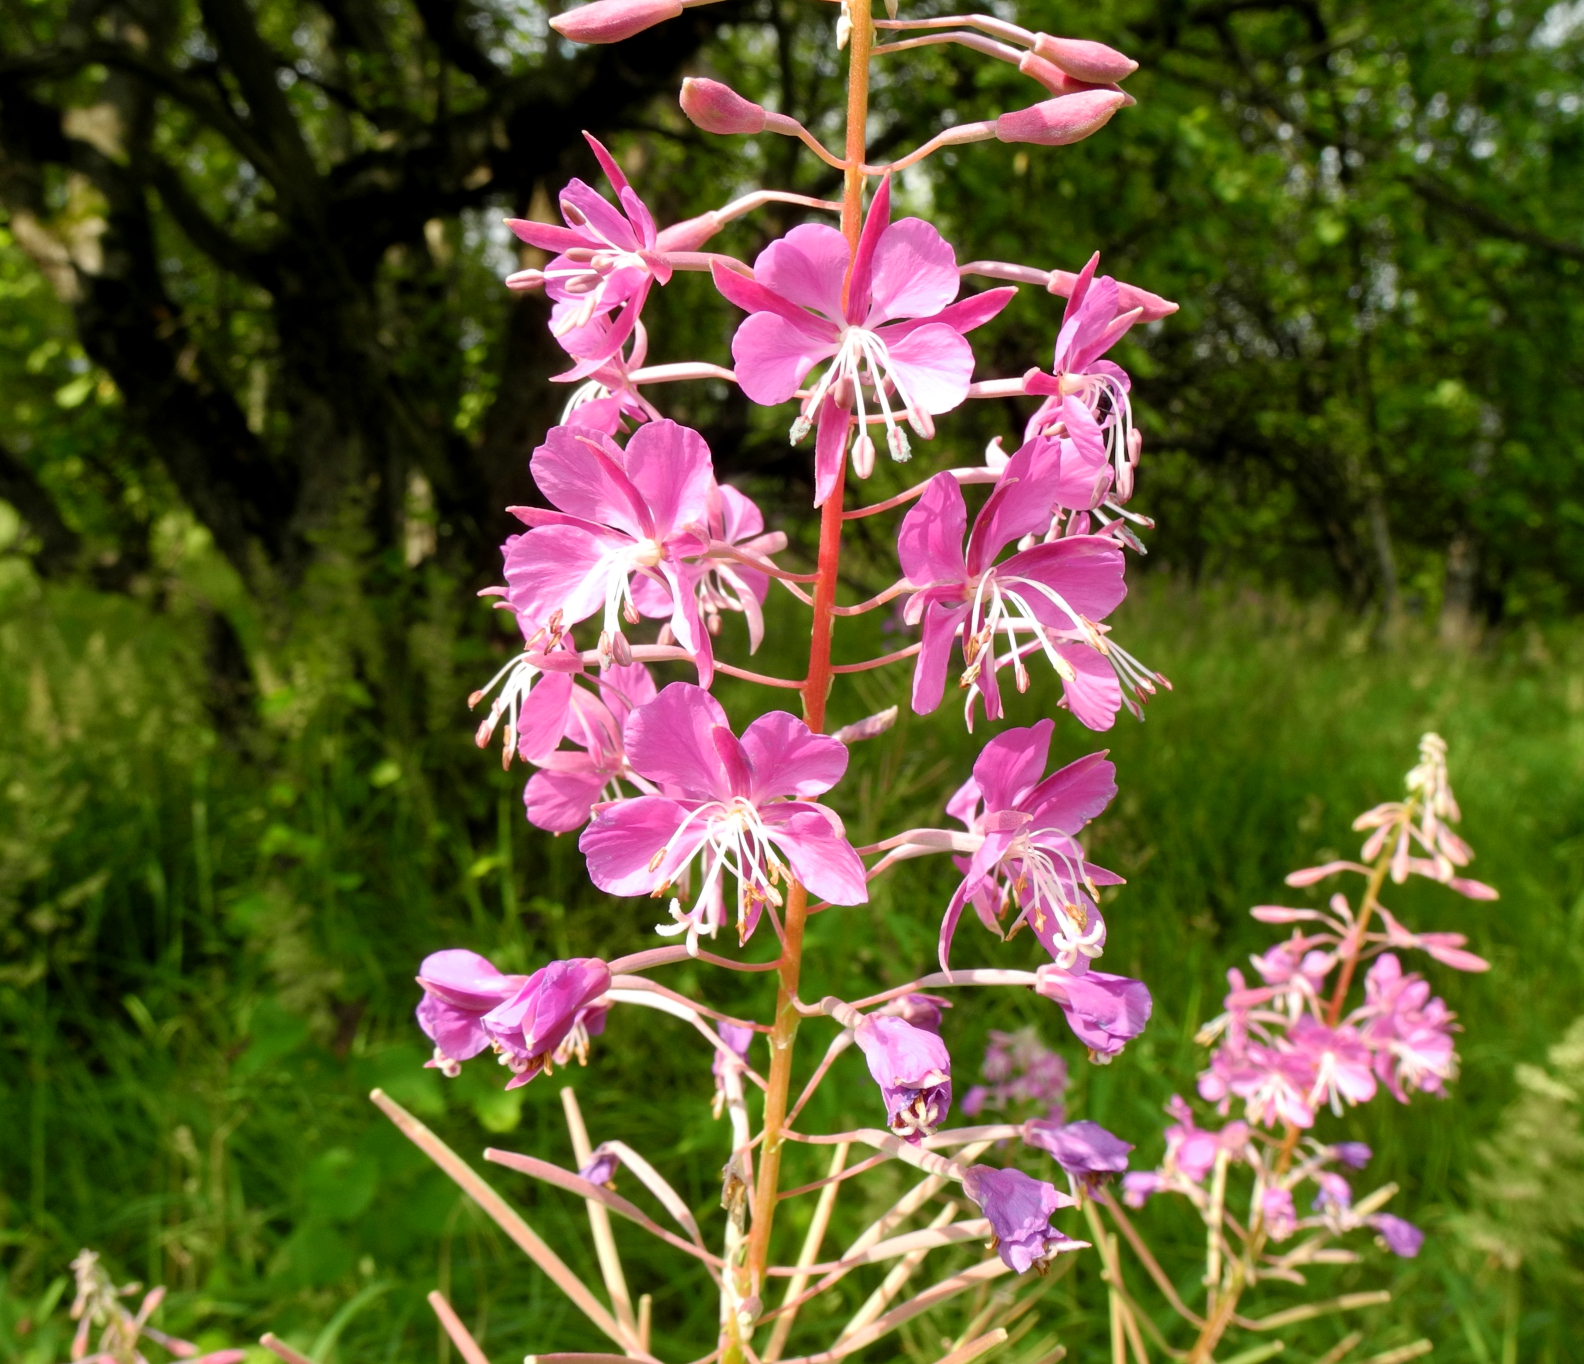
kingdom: Plantae
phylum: Tracheophyta
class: Magnoliopsida
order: Myrtales
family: Onagraceae
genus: Chamaenerion
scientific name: Chamaenerion angustifolium
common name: Fireweed
